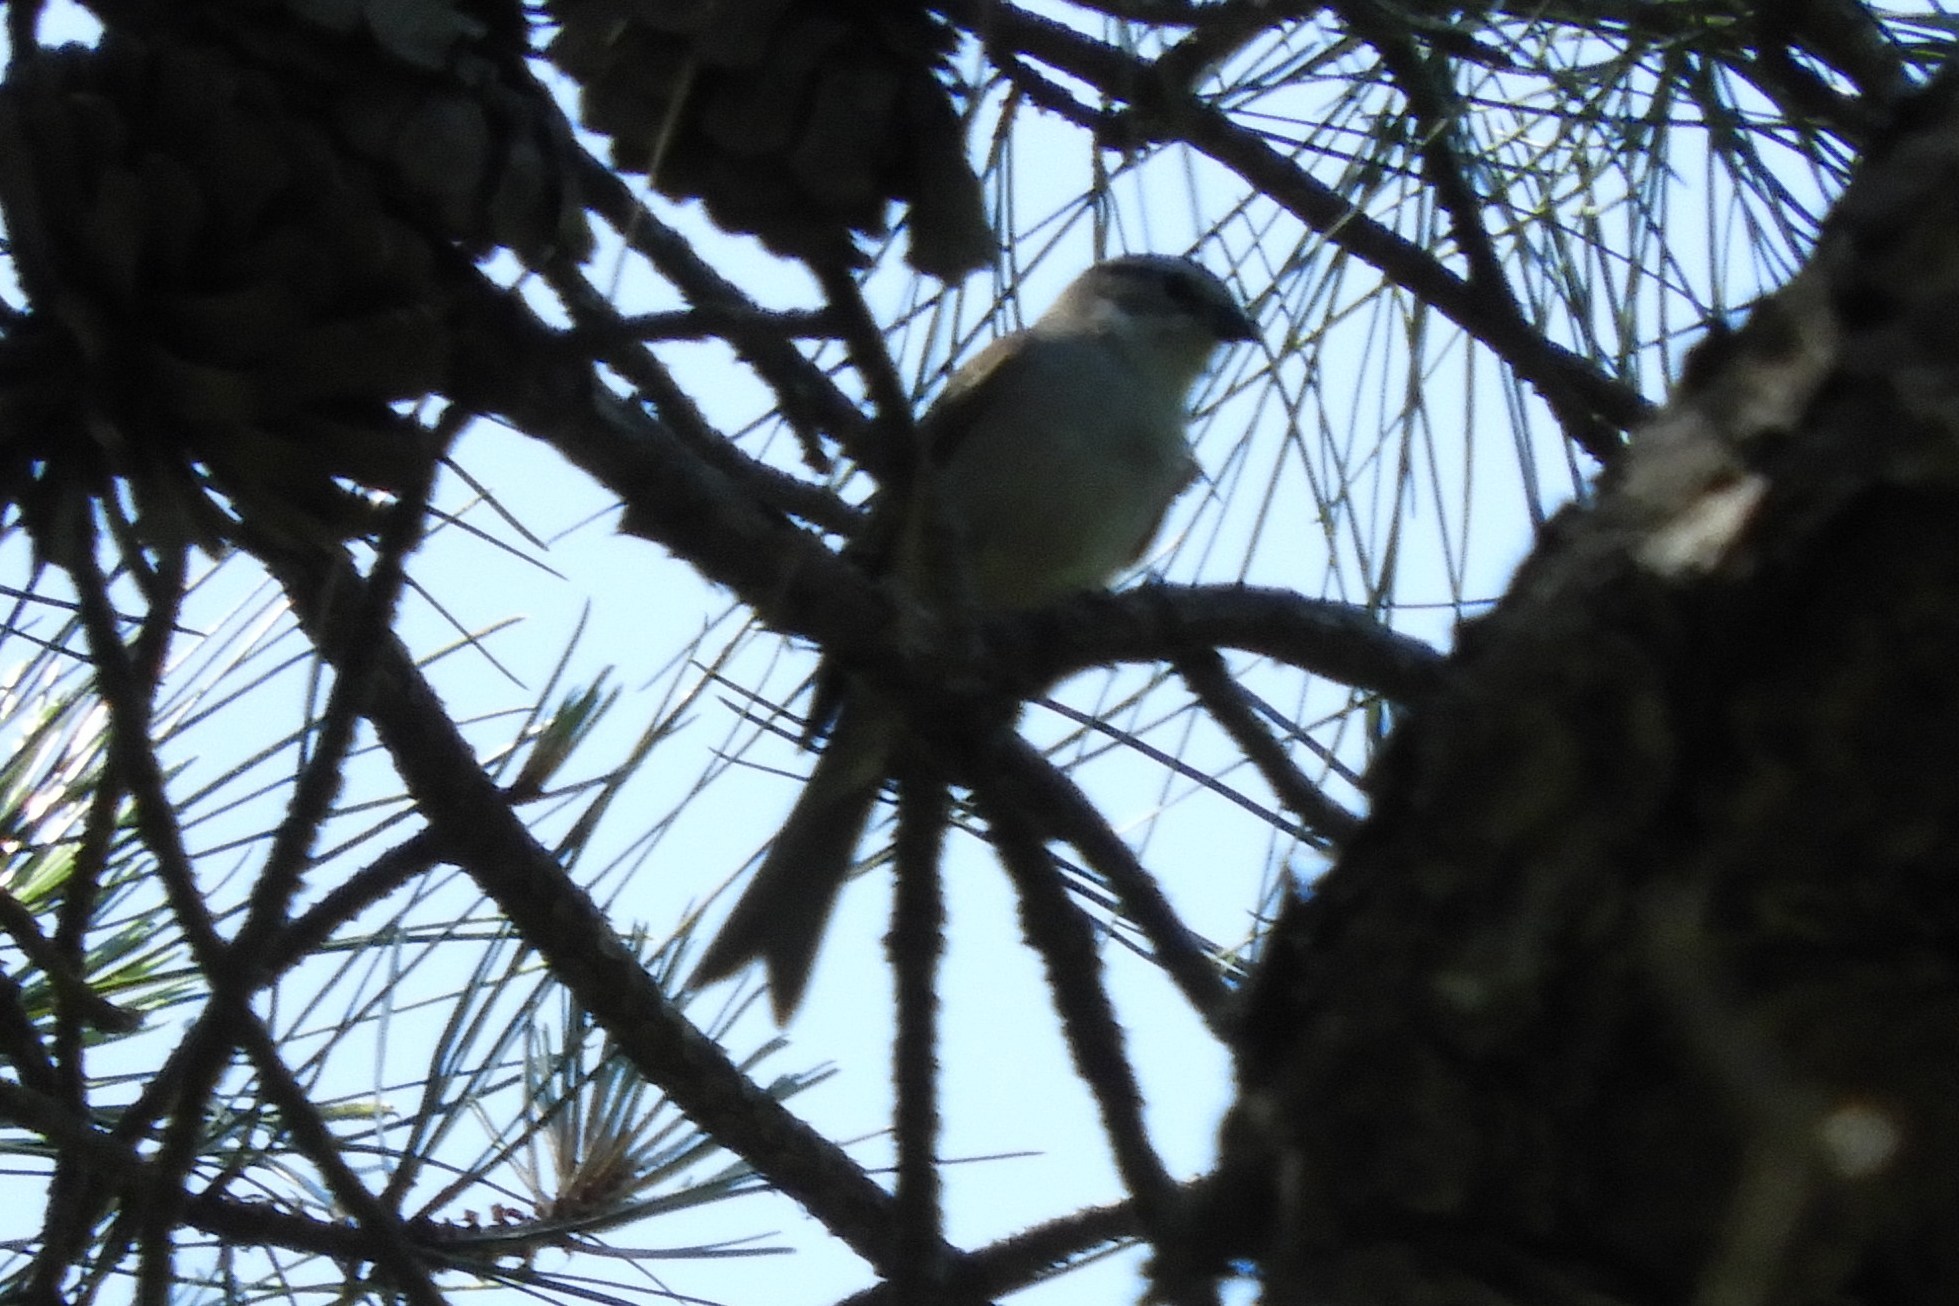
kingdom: Animalia
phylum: Chordata
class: Aves
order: Passeriformes
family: Passerellidae
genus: Spizella
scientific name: Spizella passerina
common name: Chipping sparrow
